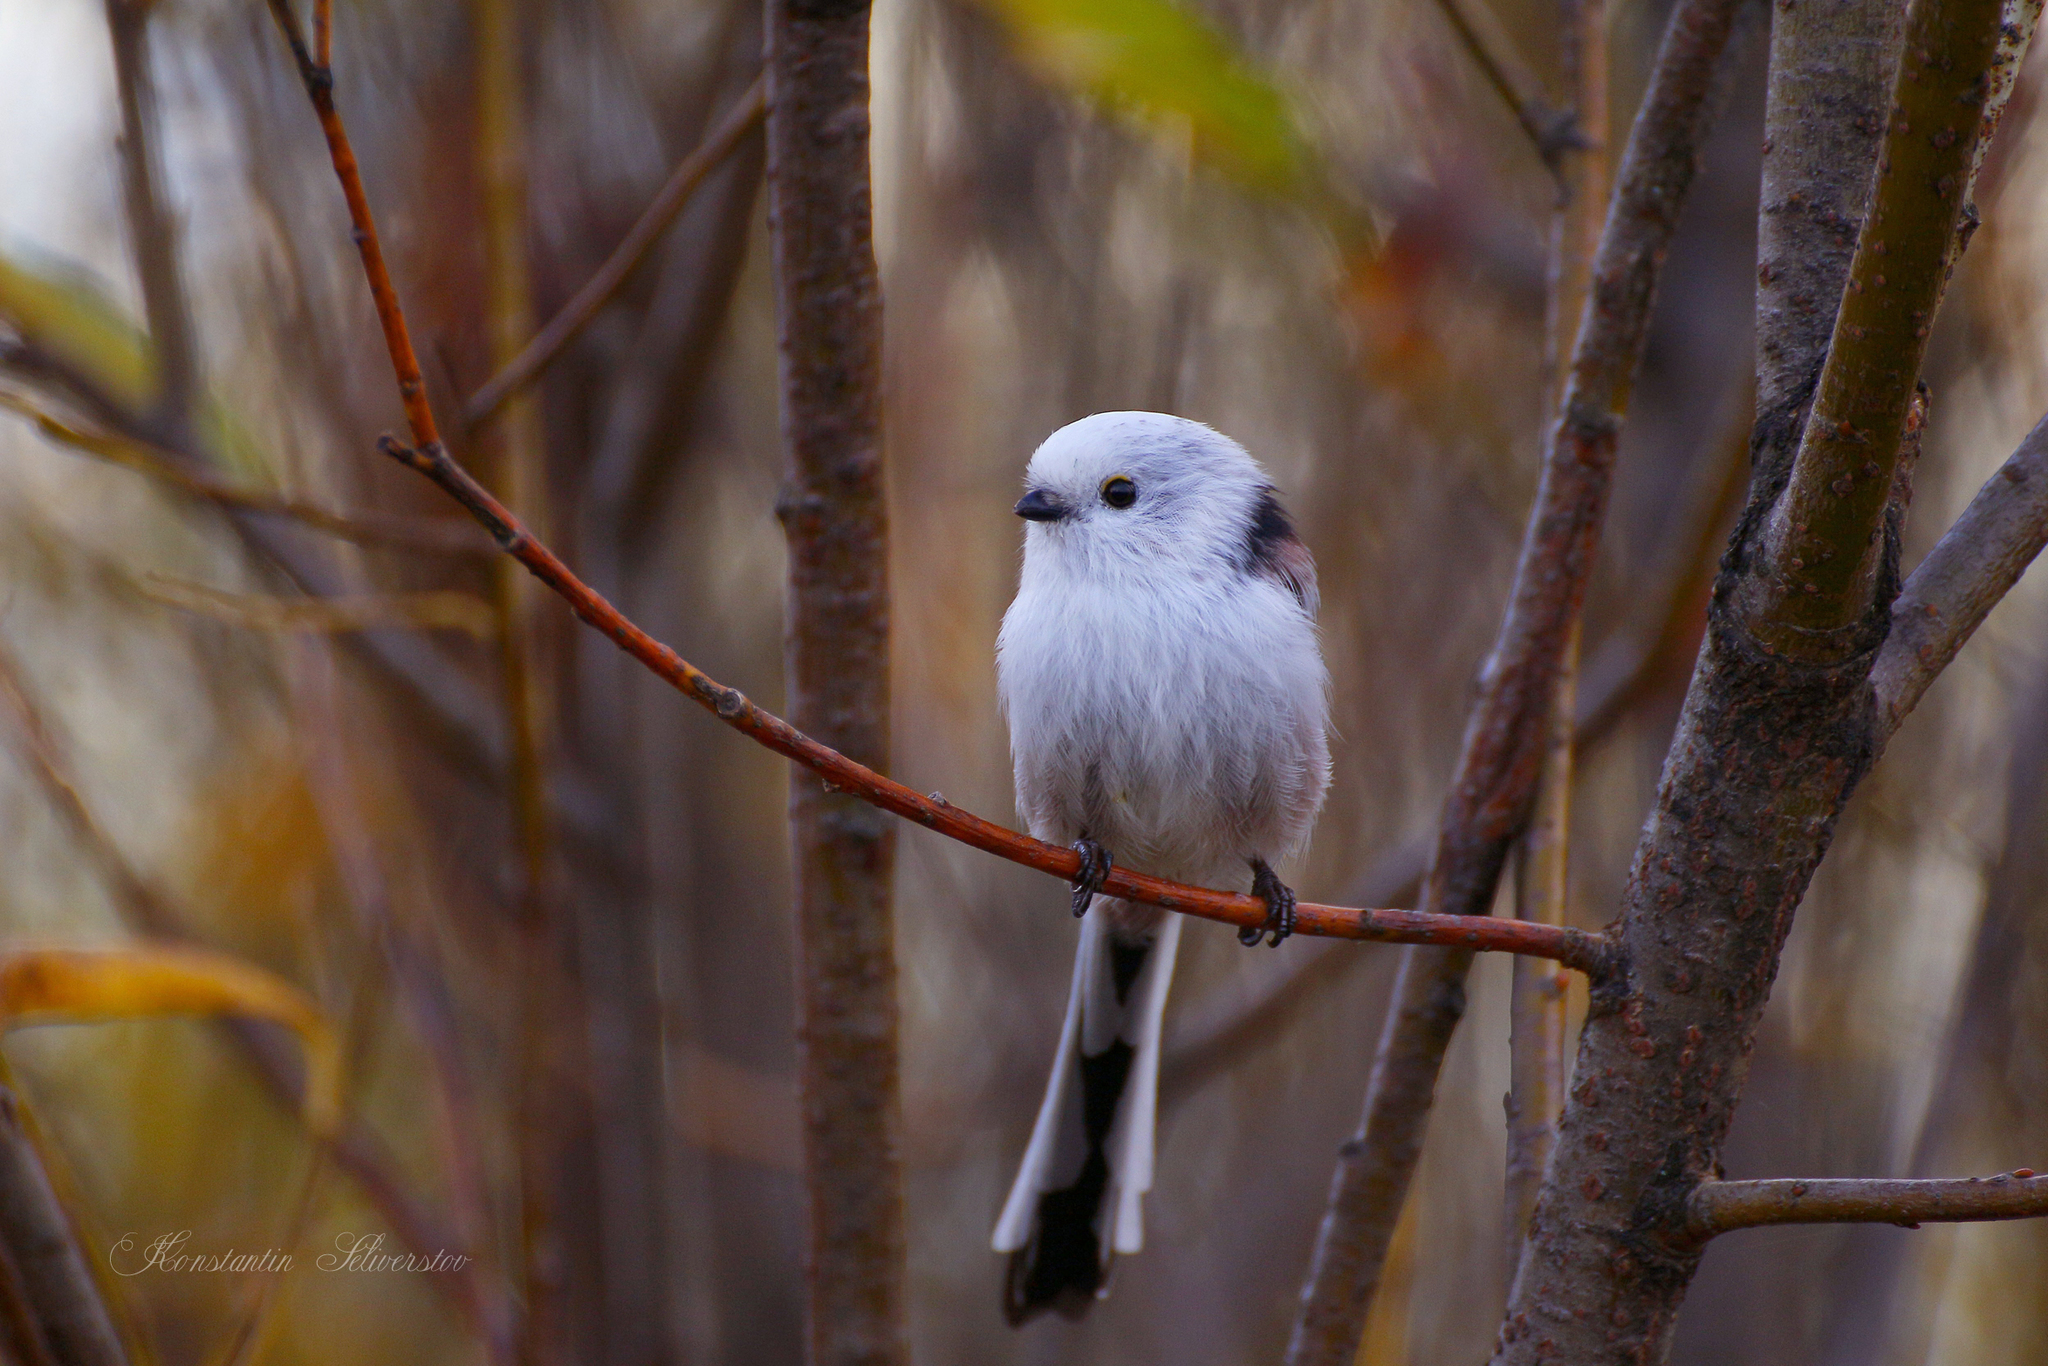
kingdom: Animalia
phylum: Chordata
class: Aves
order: Passeriformes
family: Aegithalidae
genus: Aegithalos
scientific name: Aegithalos caudatus
